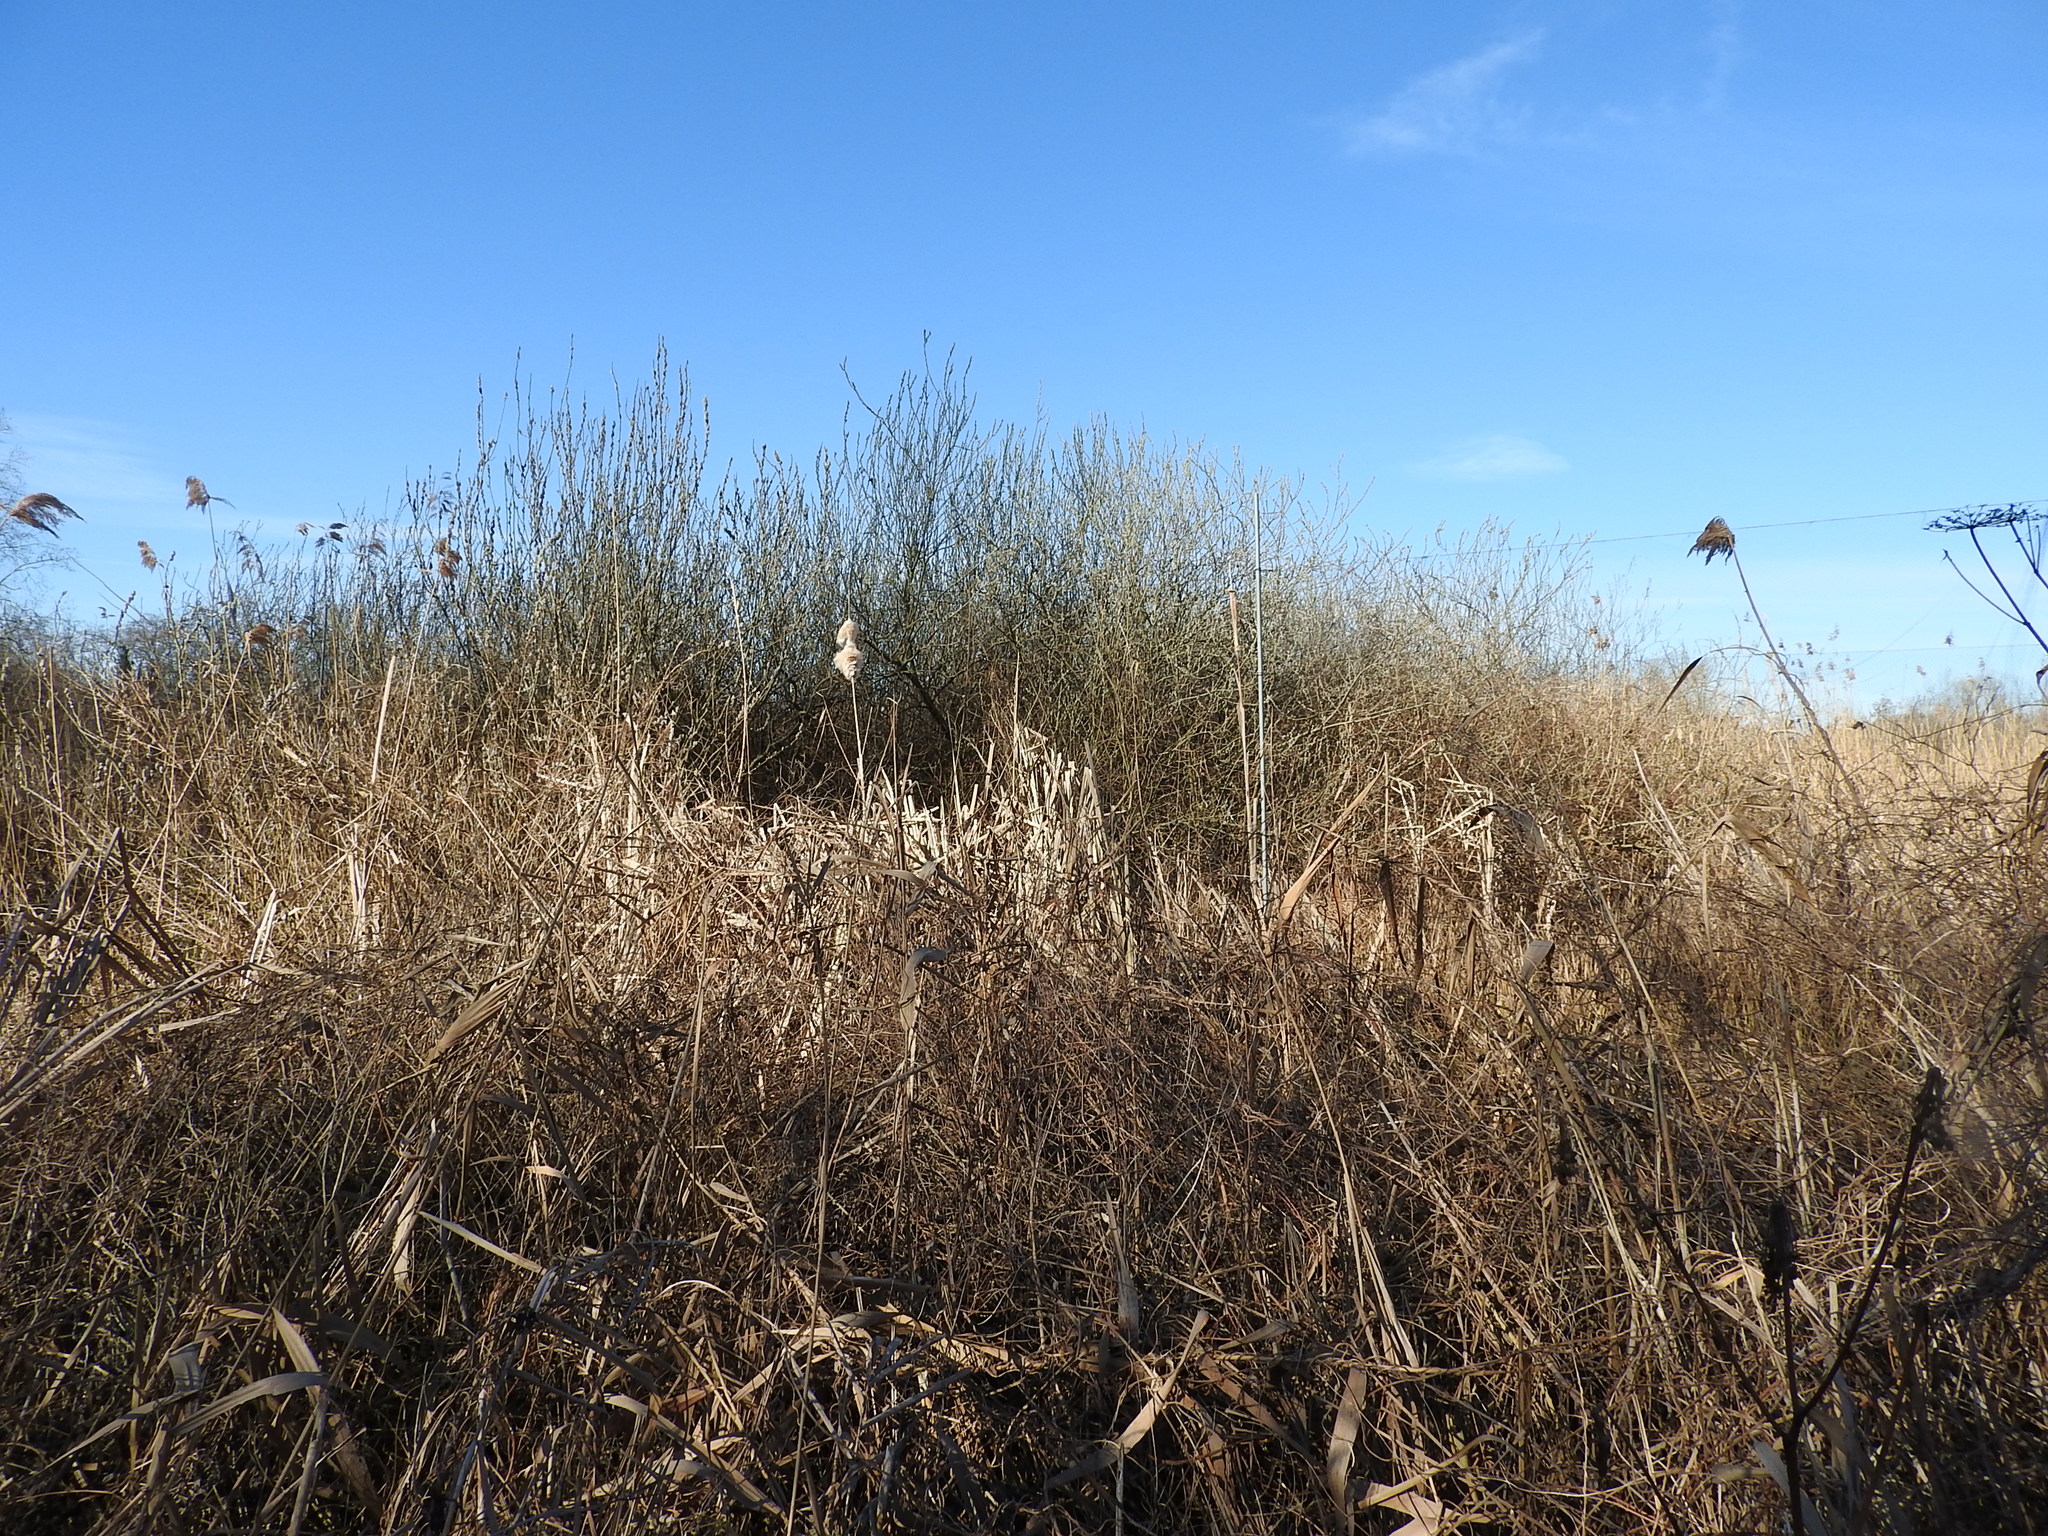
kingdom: Plantae
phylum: Tracheophyta
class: Liliopsida
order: Poales
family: Typhaceae
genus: Typha
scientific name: Typha latifolia
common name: Broadleaf cattail
